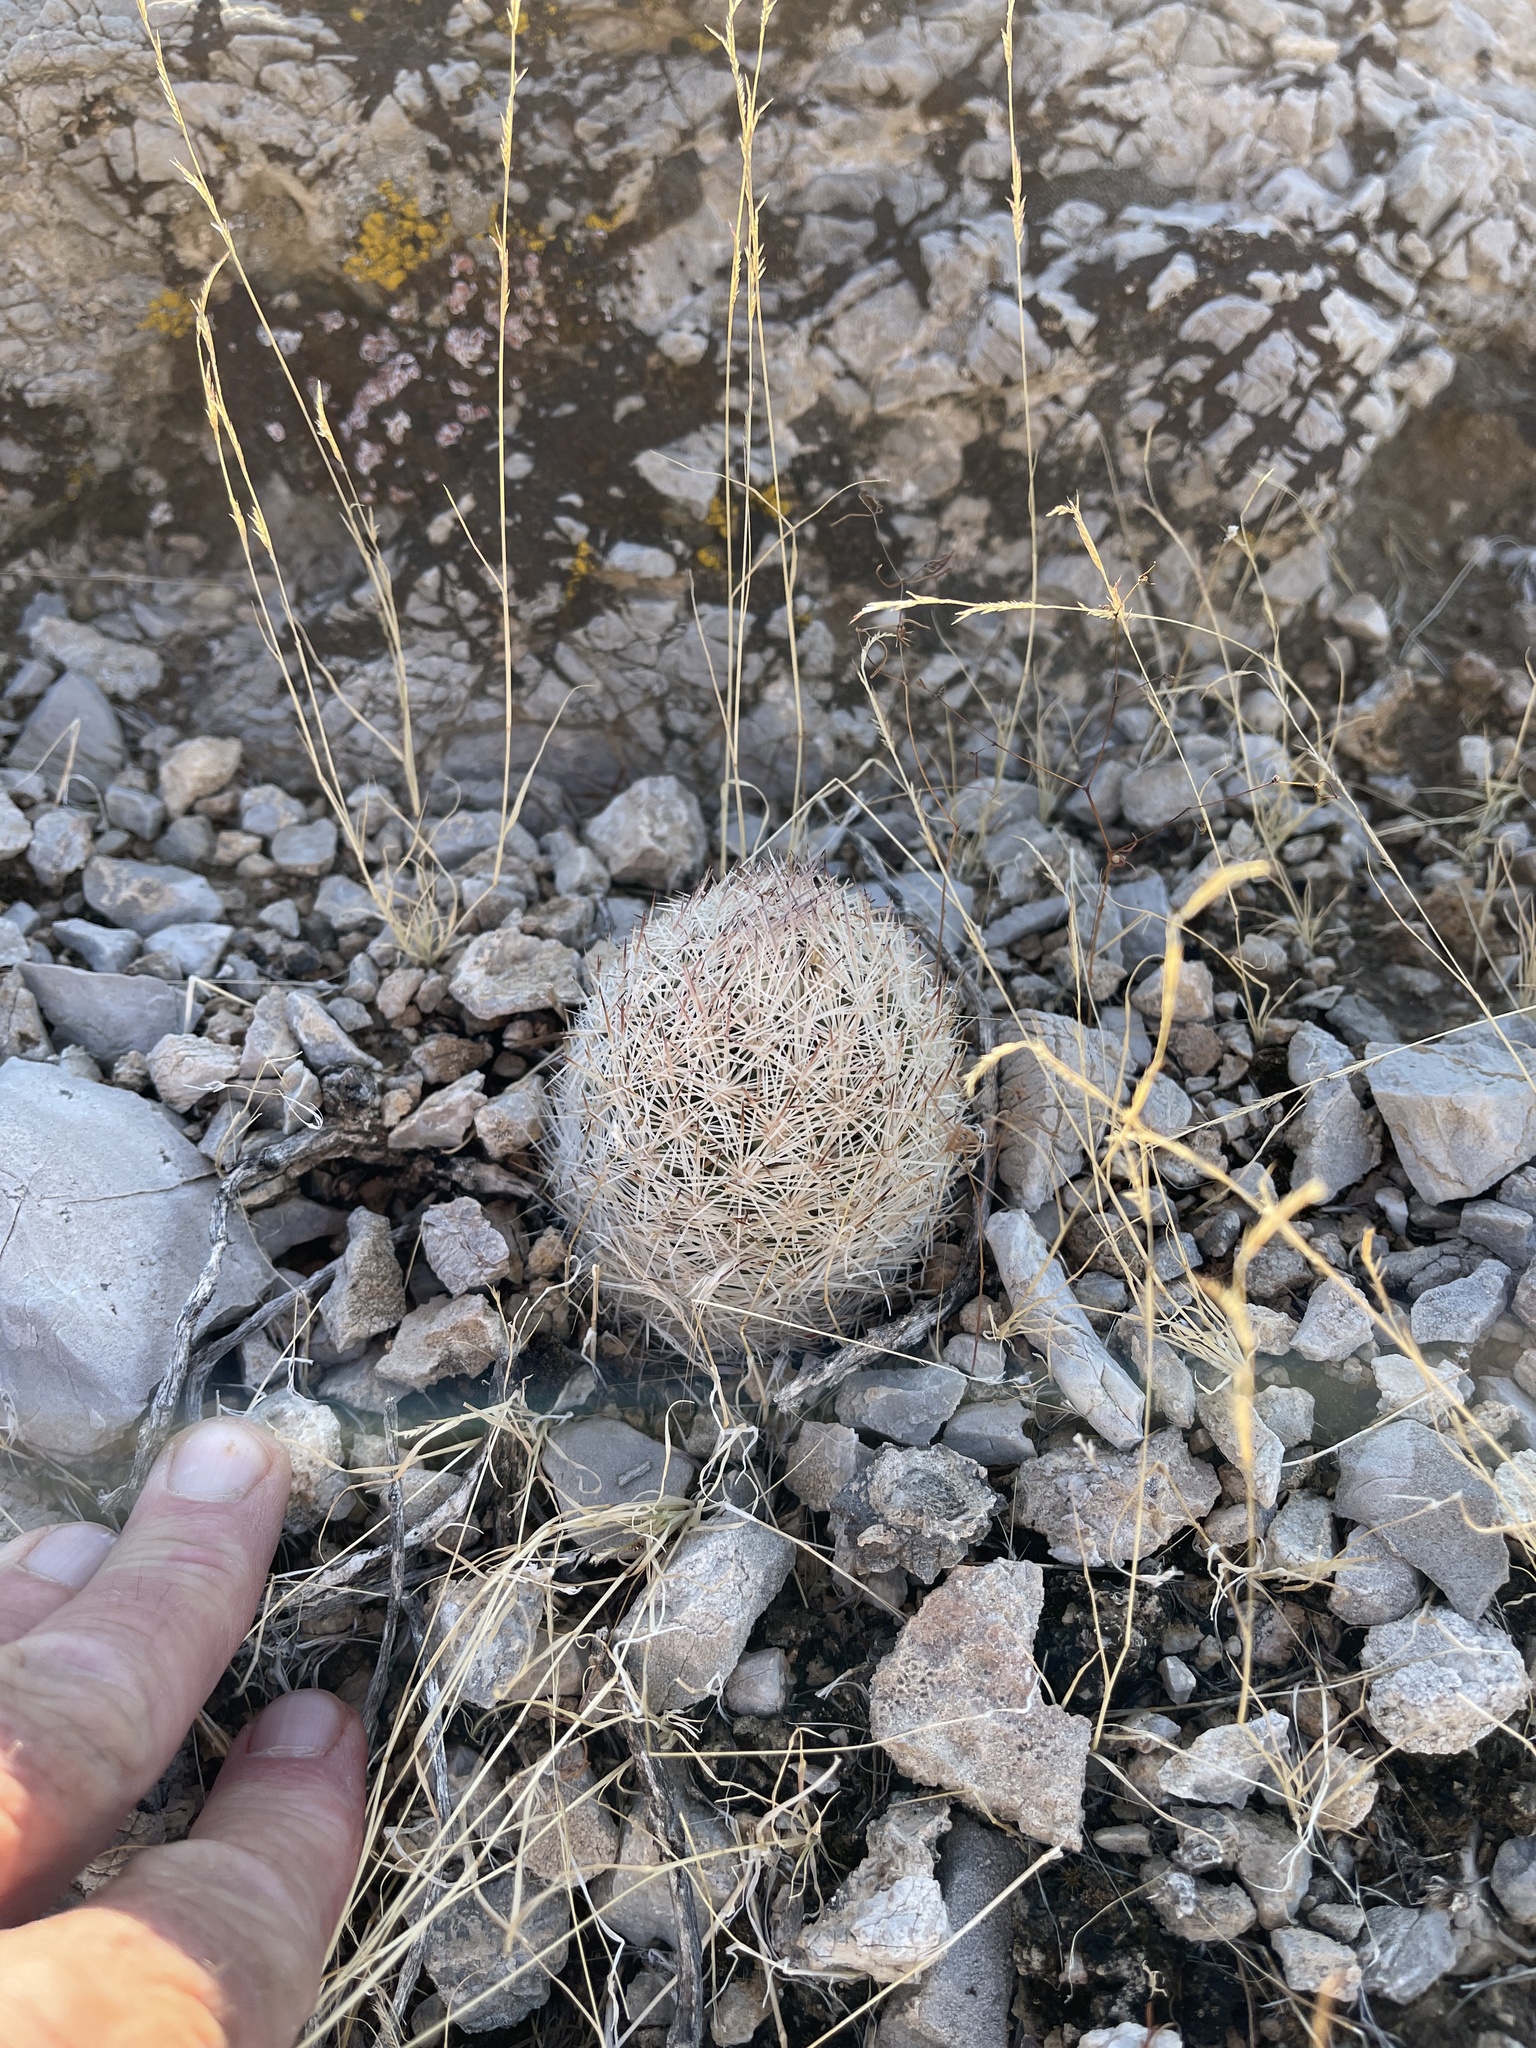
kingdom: Plantae
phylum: Tracheophyta
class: Magnoliopsida
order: Caryophyllales
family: Cactaceae
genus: Pelecyphora
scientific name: Pelecyphora dasyacantha
